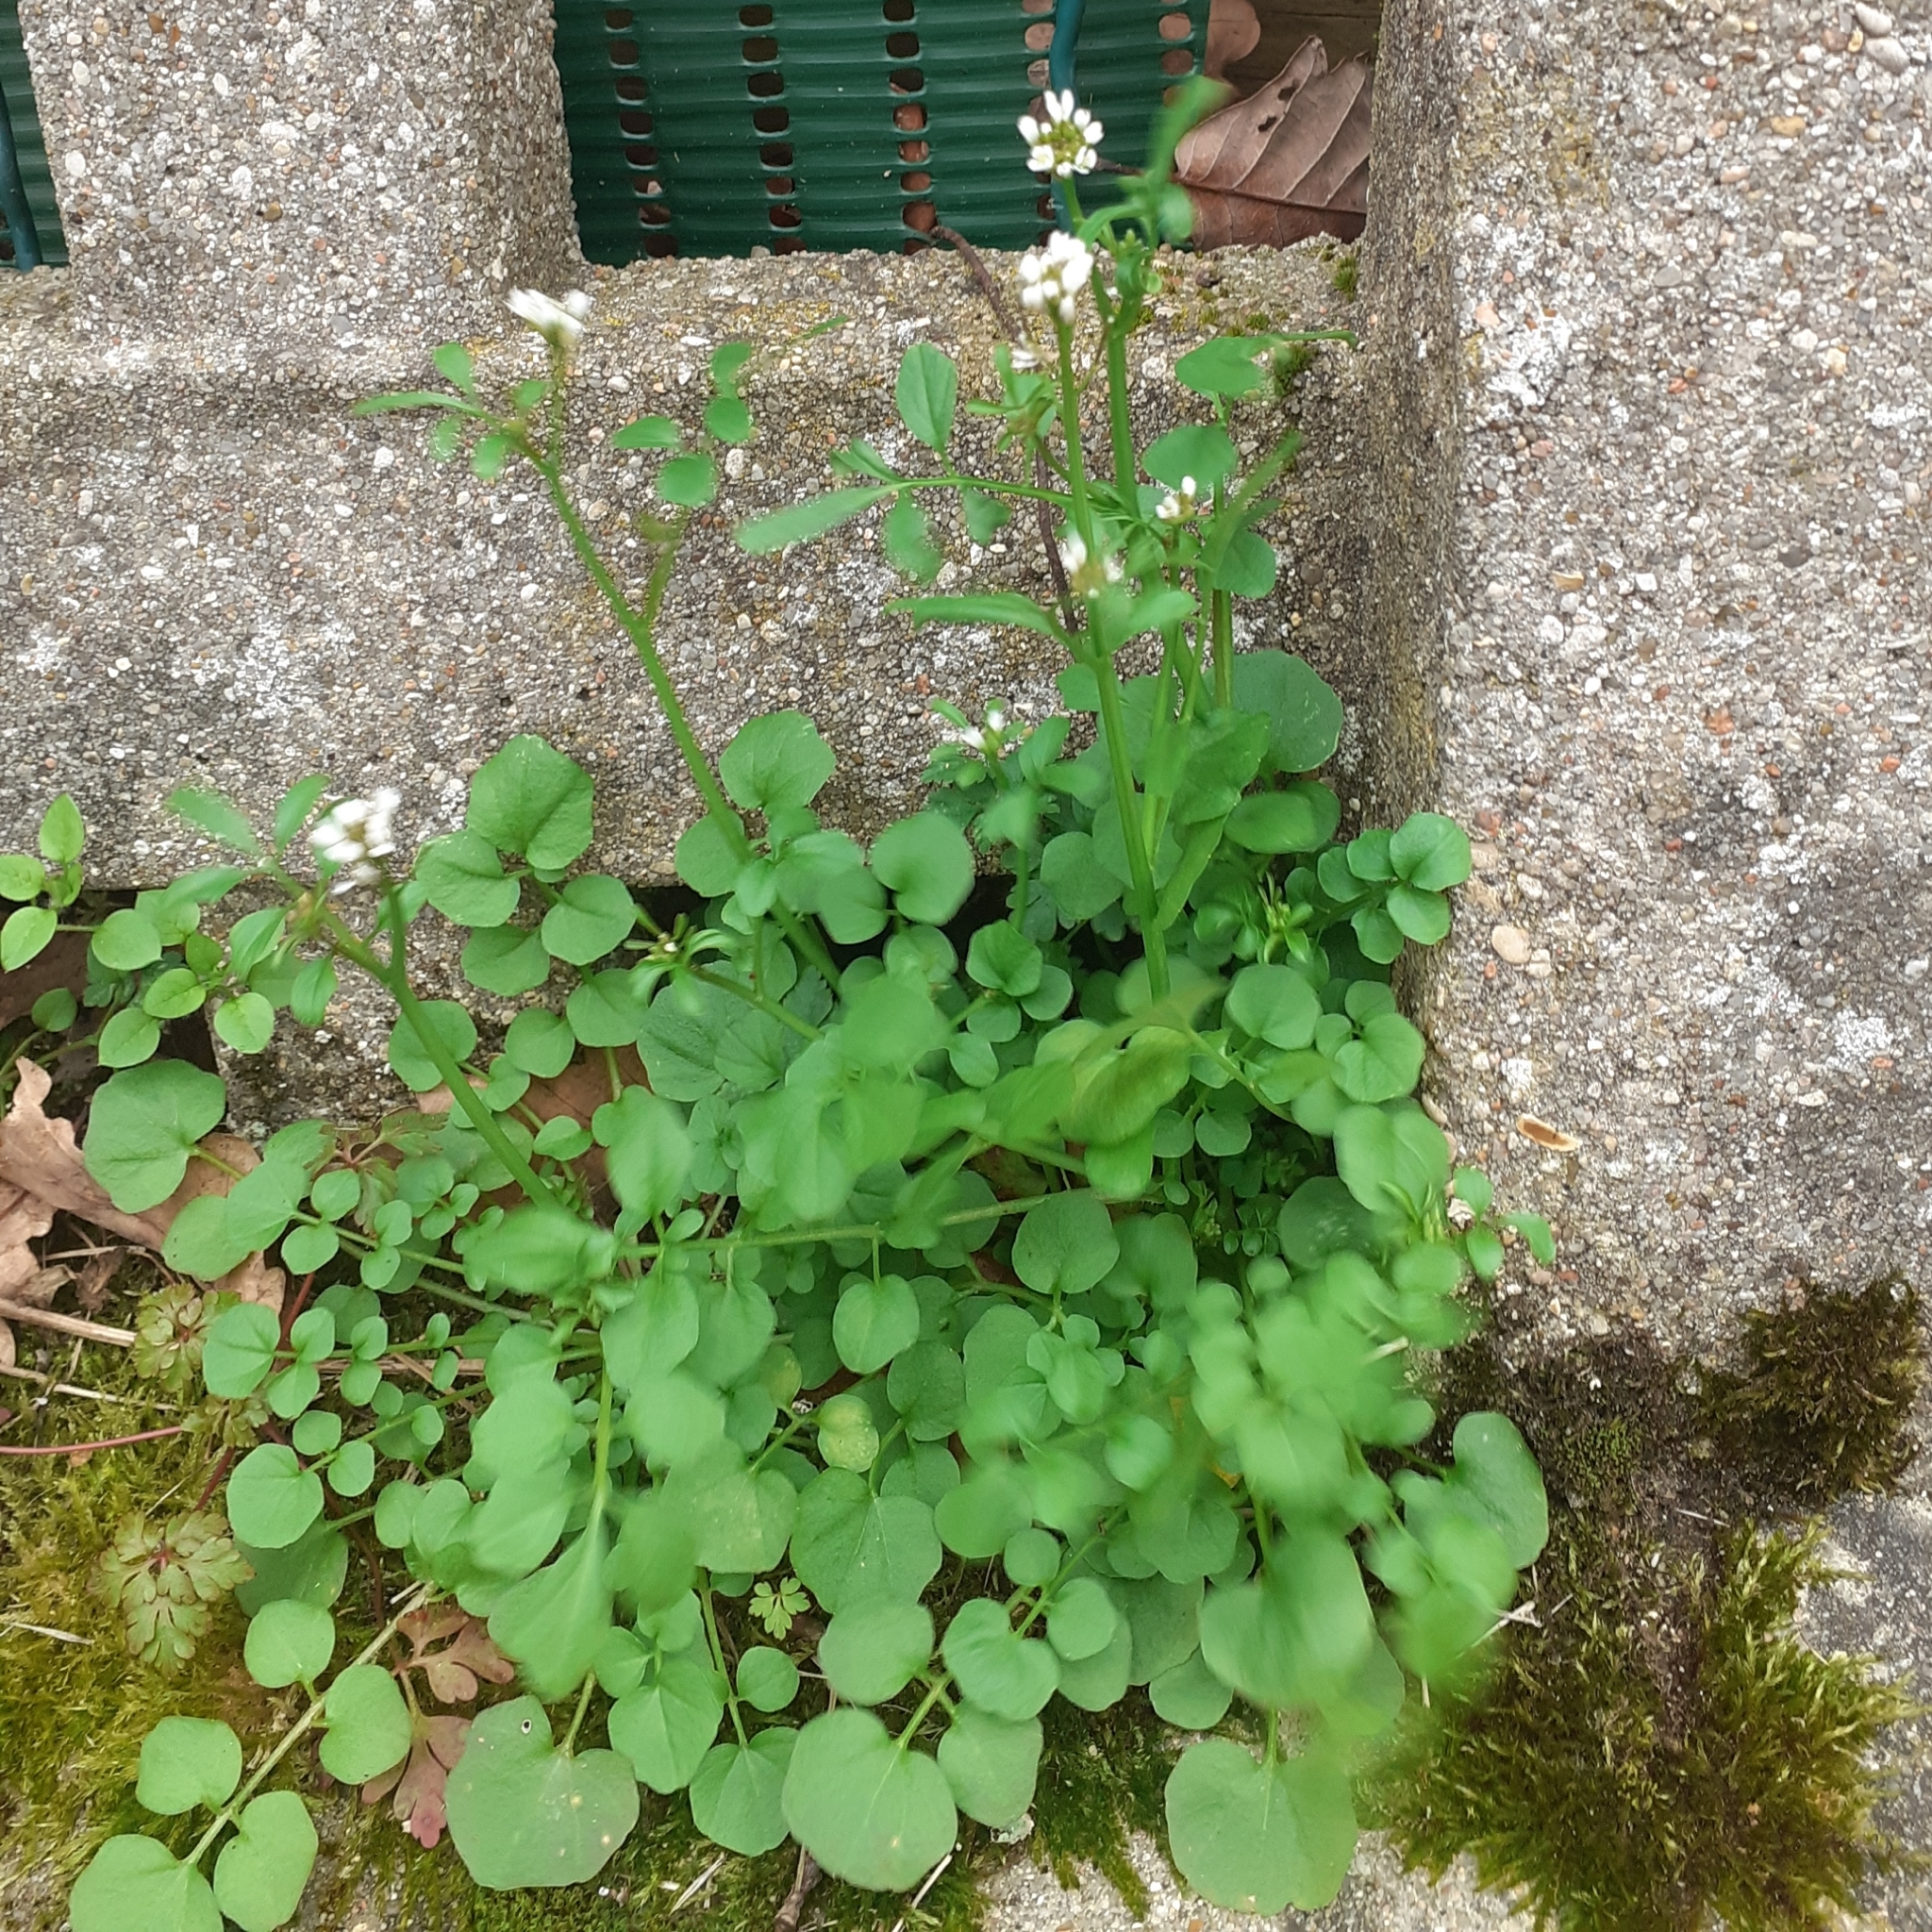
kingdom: Plantae
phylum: Tracheophyta
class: Magnoliopsida
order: Brassicales
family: Brassicaceae
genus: Cardamine
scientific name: Cardamine hirsuta
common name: Hairy bittercress
